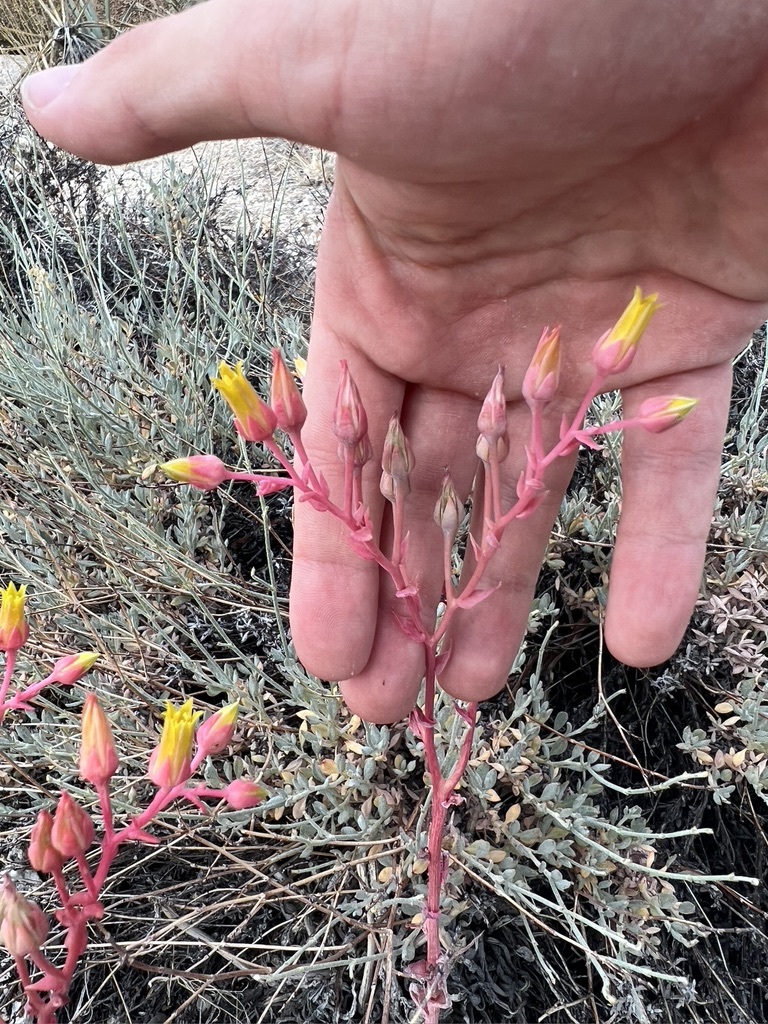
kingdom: Plantae
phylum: Tracheophyta
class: Magnoliopsida
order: Saxifragales
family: Crassulaceae
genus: Dudleya
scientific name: Dudleya saxosa
